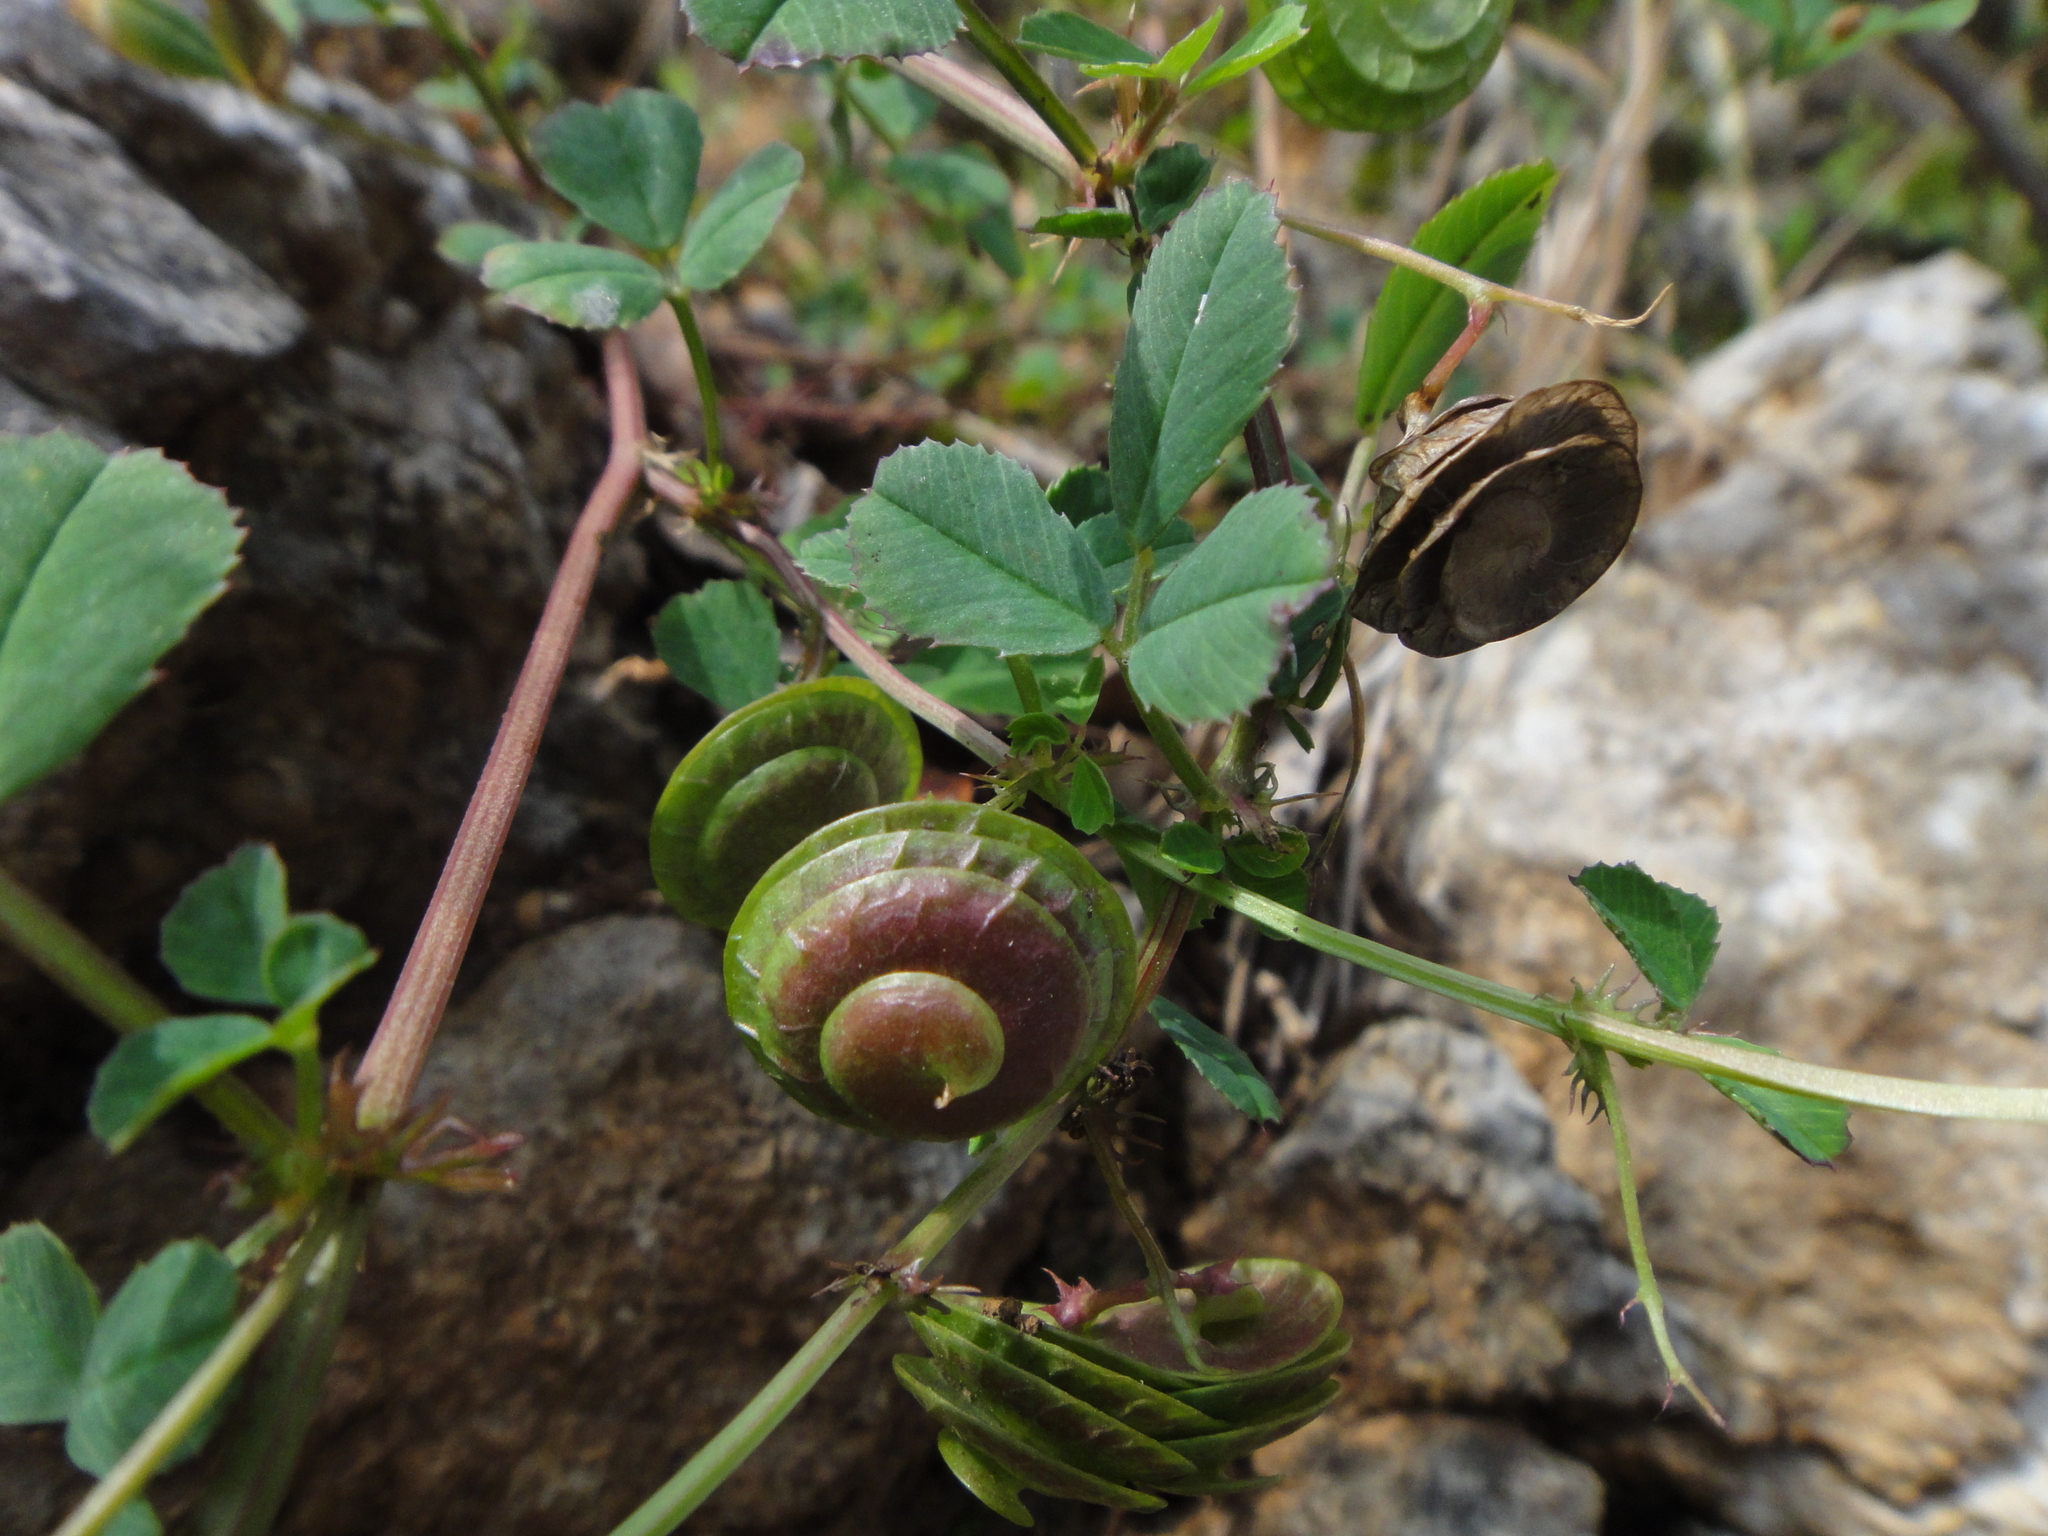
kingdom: Plantae
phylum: Tracheophyta
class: Magnoliopsida
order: Fabales
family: Fabaceae
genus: Medicago
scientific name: Medicago orbicularis
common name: Button medick
